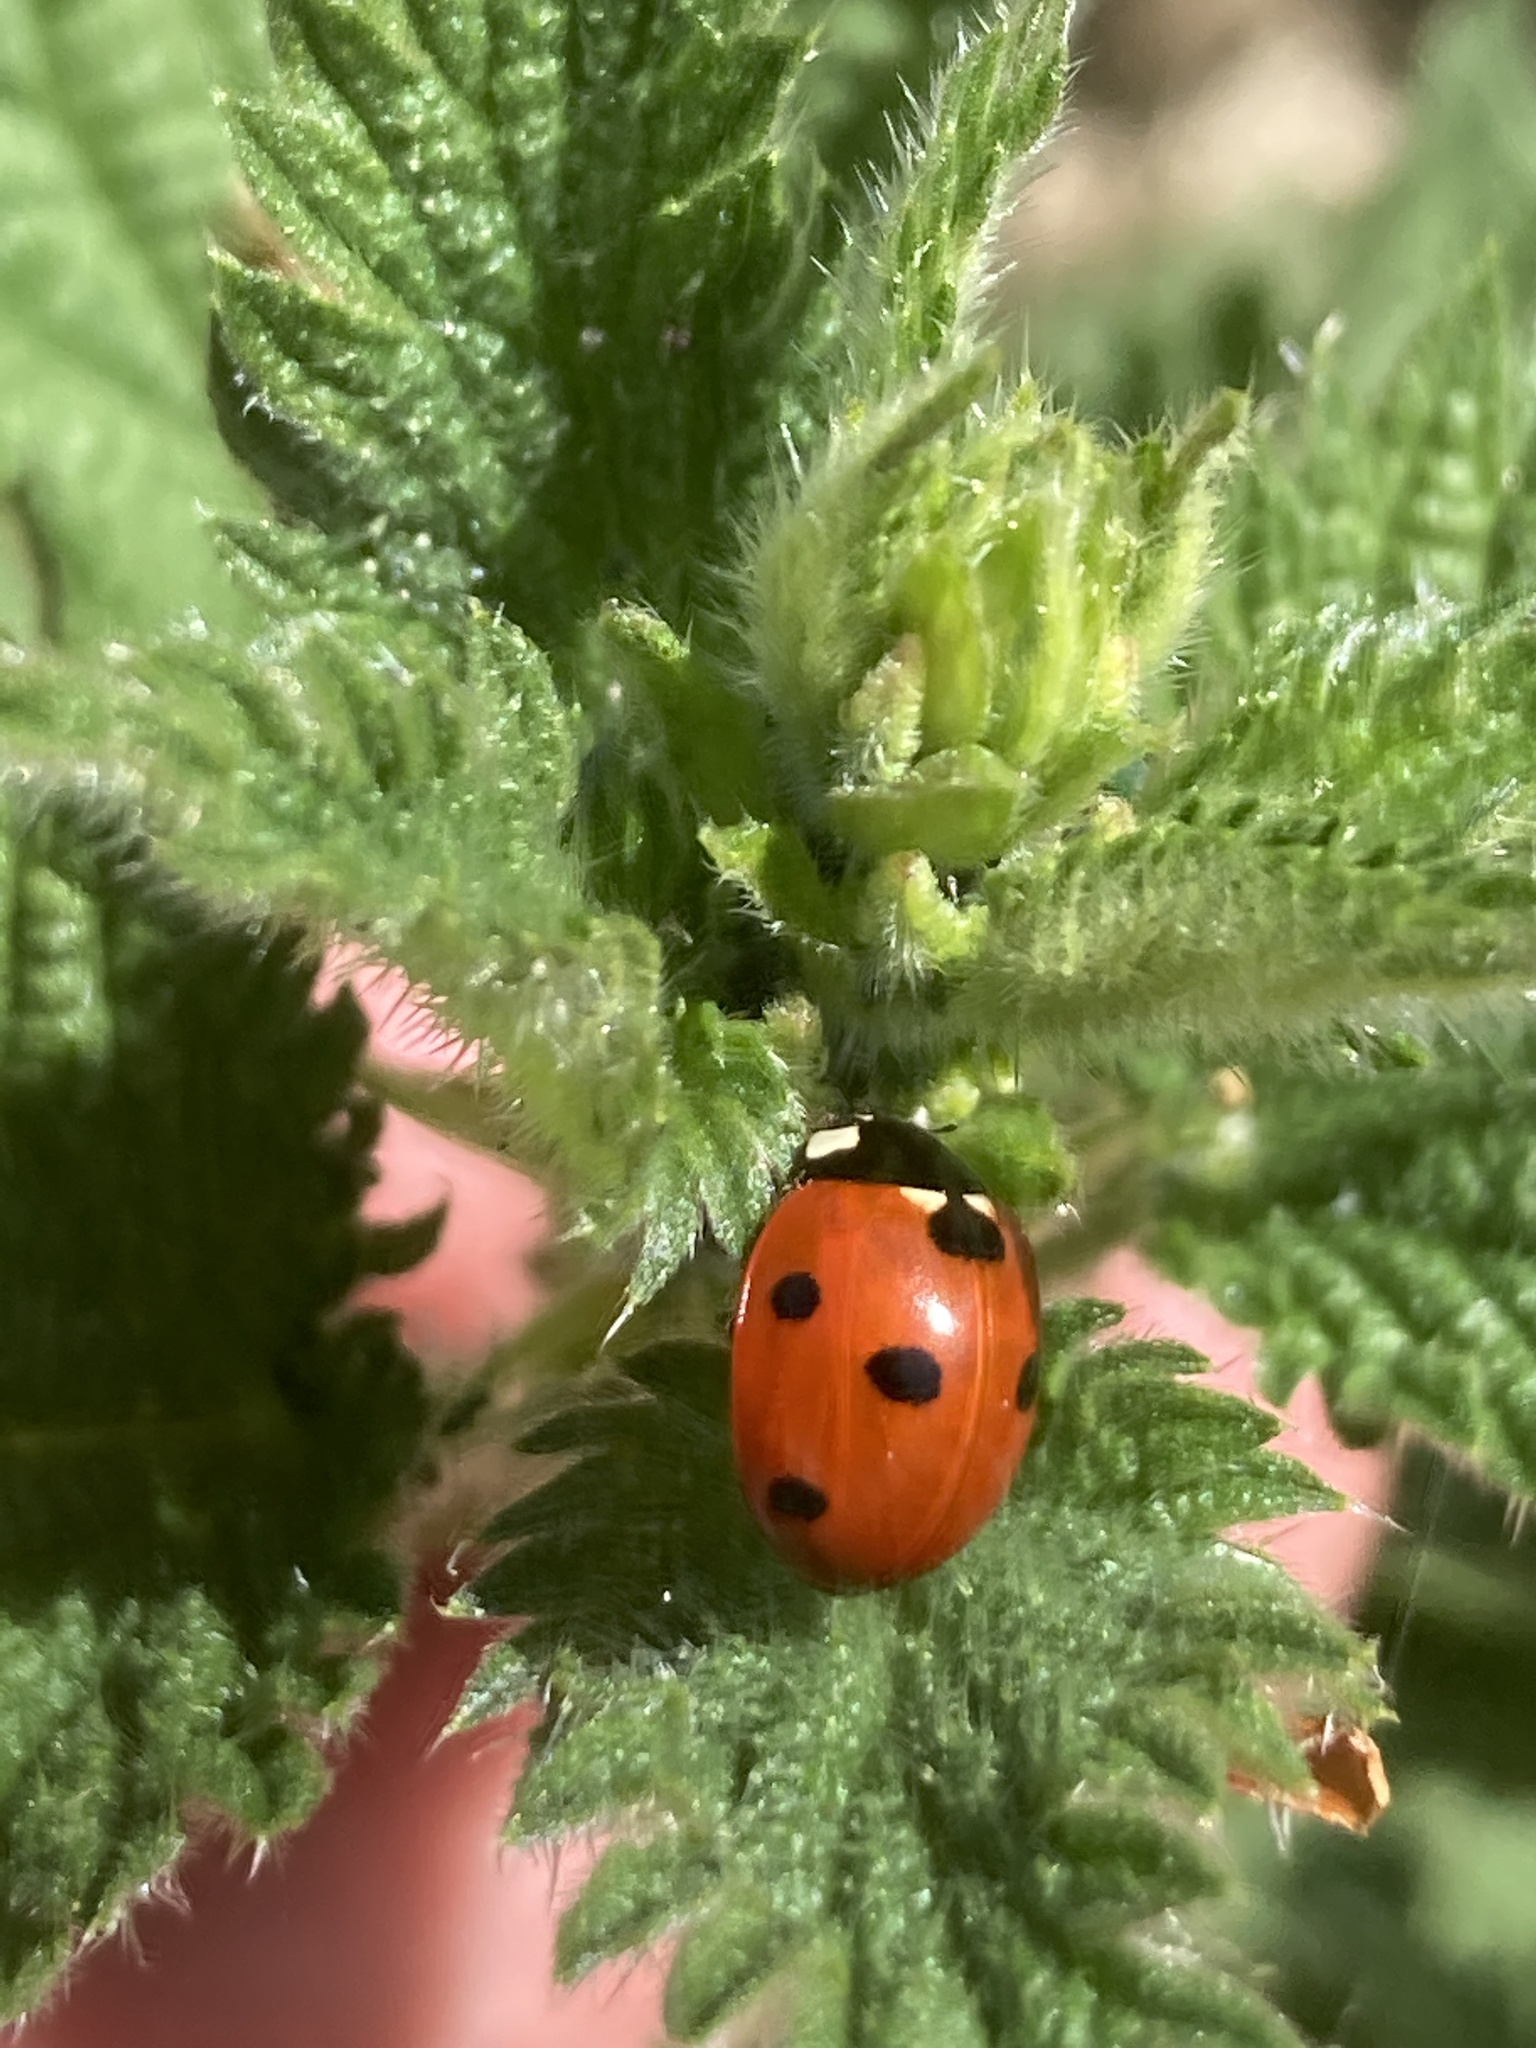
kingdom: Animalia
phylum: Arthropoda
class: Insecta
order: Coleoptera
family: Coccinellidae
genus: Coccinella
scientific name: Coccinella septempunctata
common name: Sevenspotted lady beetle
